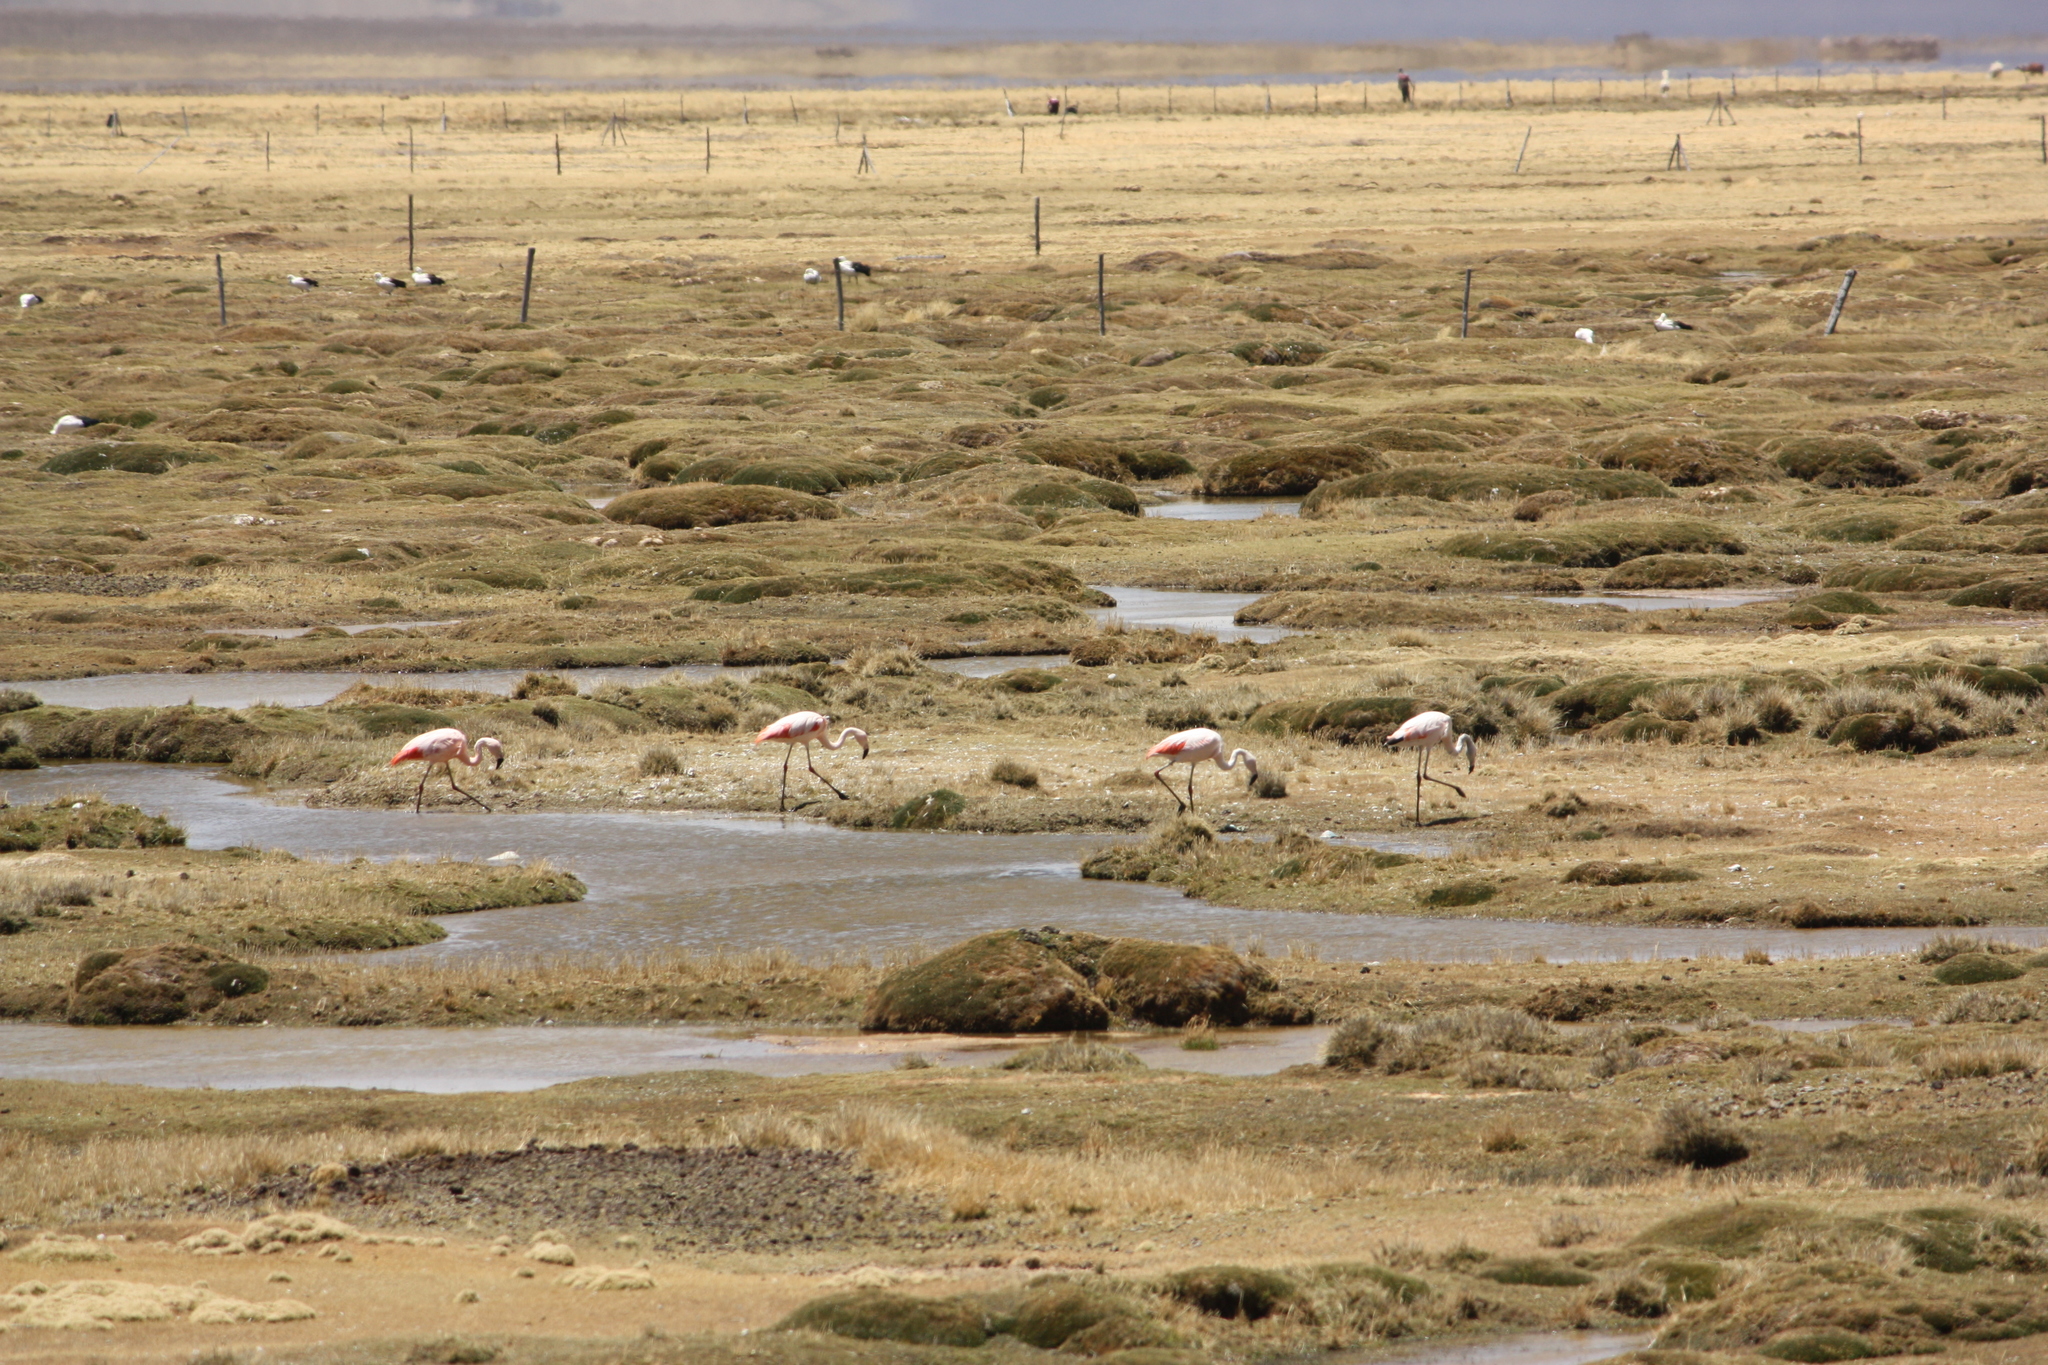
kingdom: Animalia
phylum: Chordata
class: Aves
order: Phoenicopteriformes
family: Phoenicopteridae
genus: Phoenicopterus
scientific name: Phoenicopterus chilensis
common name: Chilean flamingo
